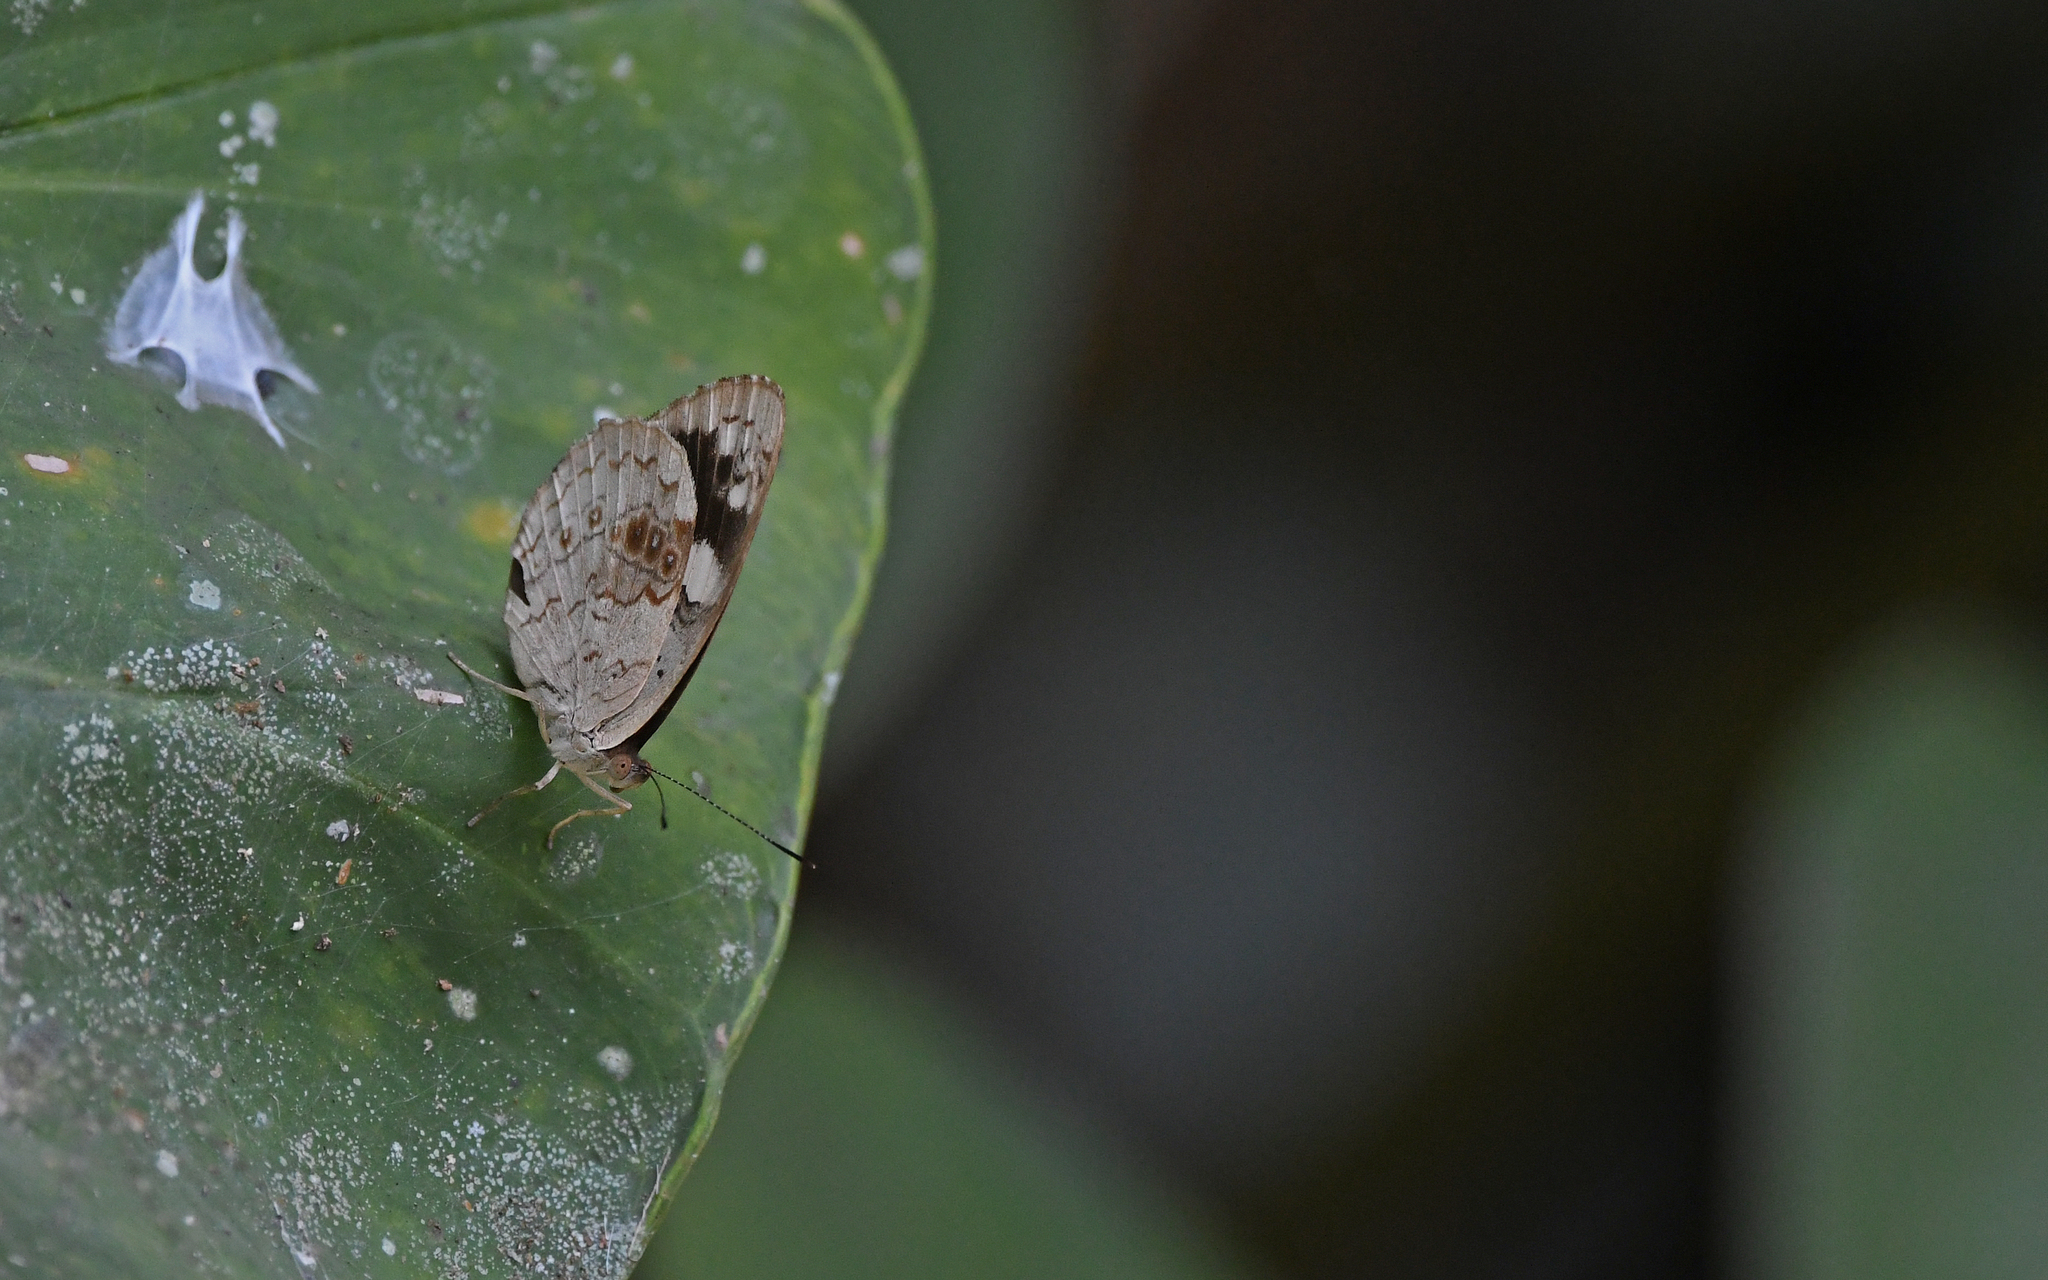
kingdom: Animalia
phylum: Arthropoda
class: Insecta
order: Lepidoptera
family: Nymphalidae
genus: Eunica
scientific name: Eunica marsolia
